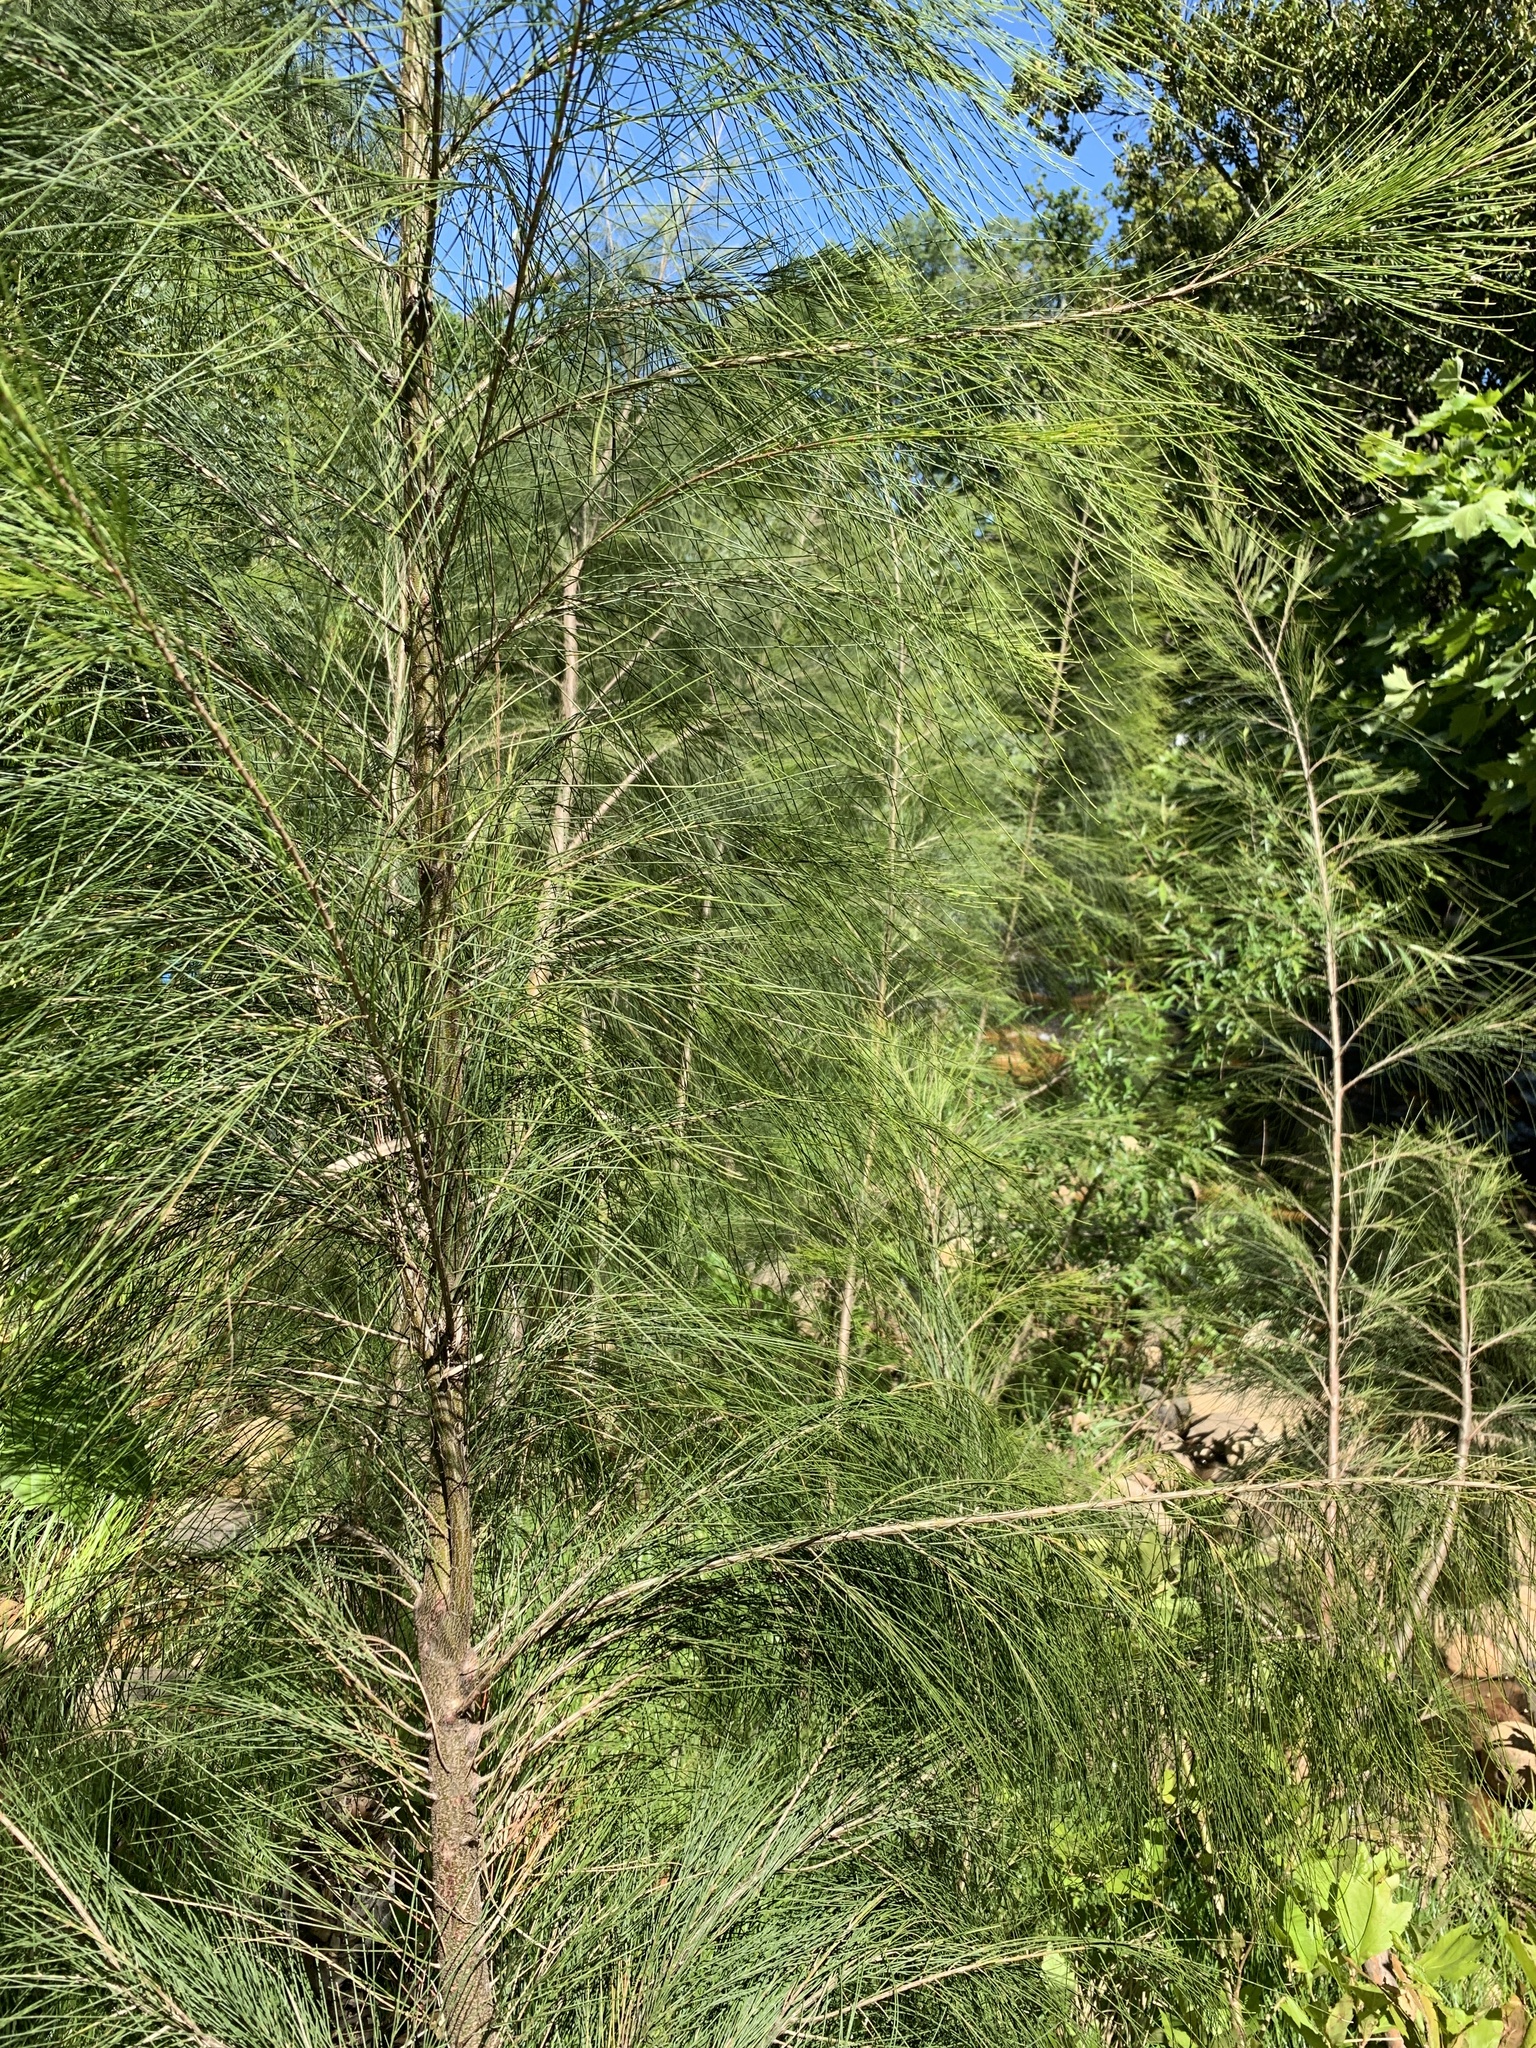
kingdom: Plantae
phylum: Tracheophyta
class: Magnoliopsida
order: Fagales
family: Casuarinaceae
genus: Casuarina
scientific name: Casuarina cunninghamiana
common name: River sheoak
